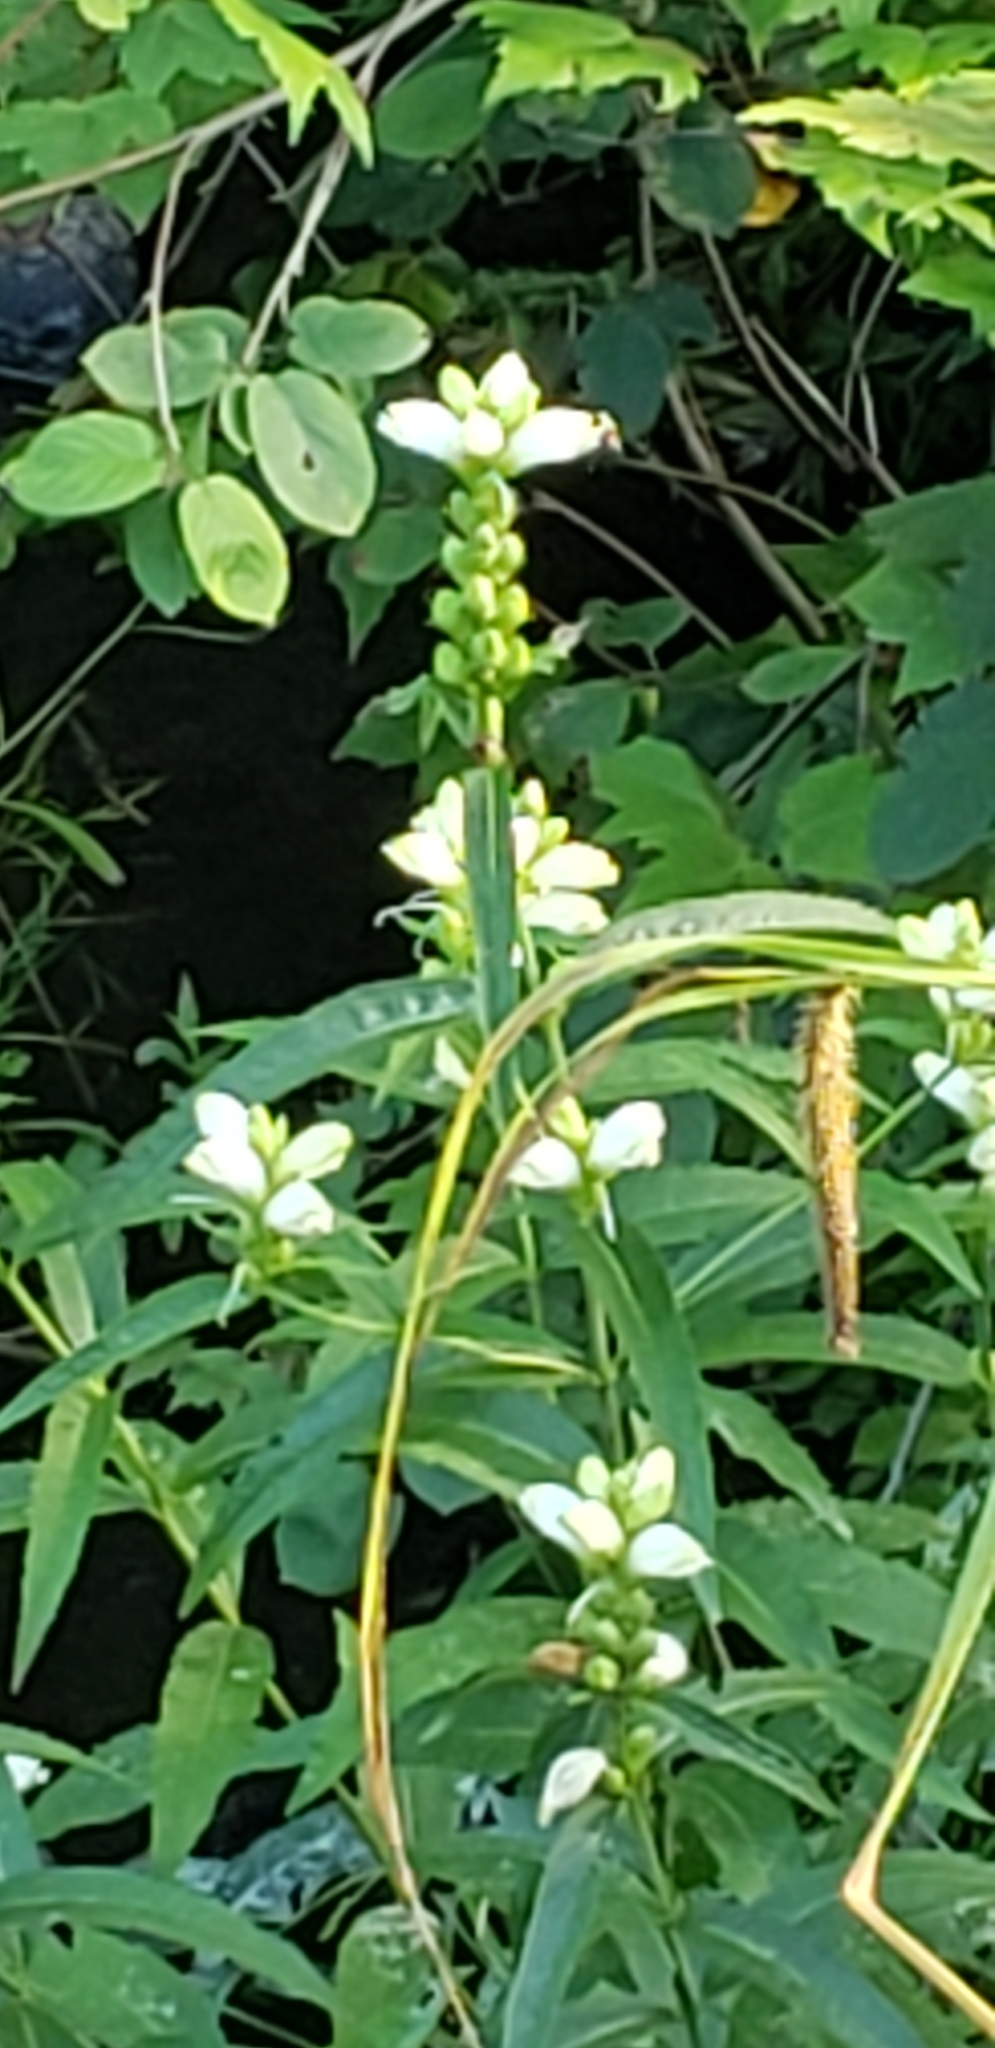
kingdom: Plantae
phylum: Tracheophyta
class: Magnoliopsida
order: Lamiales
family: Plantaginaceae
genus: Chelone
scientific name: Chelone glabra
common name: Snakehead
